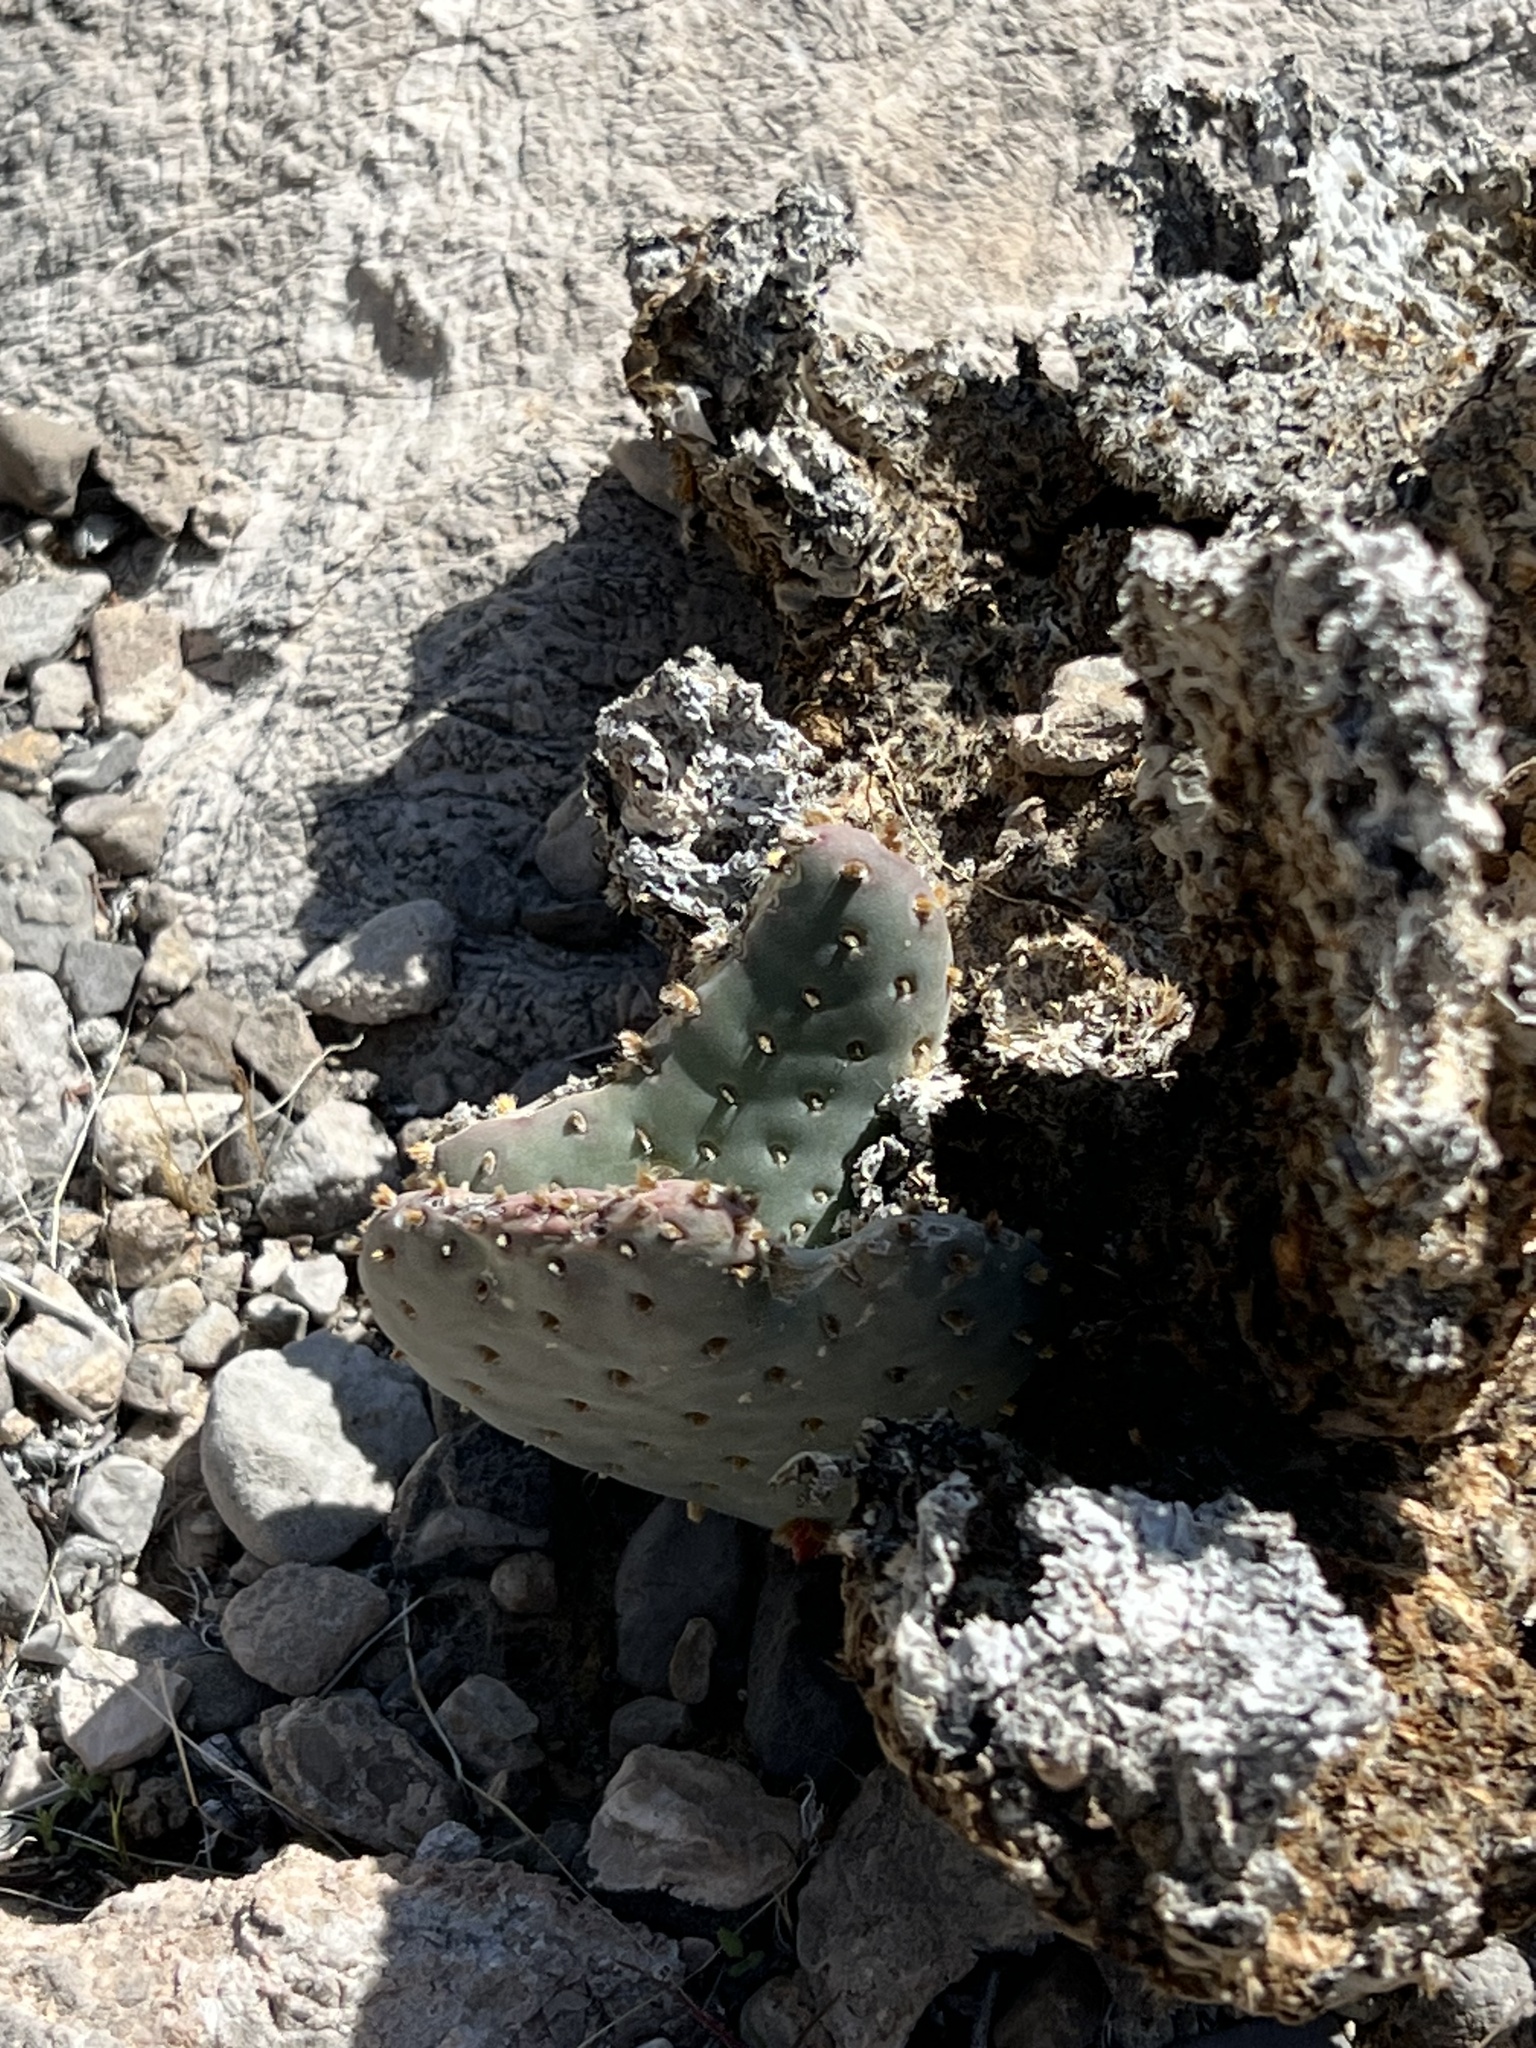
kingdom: Plantae
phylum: Tracheophyta
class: Magnoliopsida
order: Caryophyllales
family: Cactaceae
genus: Opuntia
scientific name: Opuntia basilaris
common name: Beavertail prickly-pear
